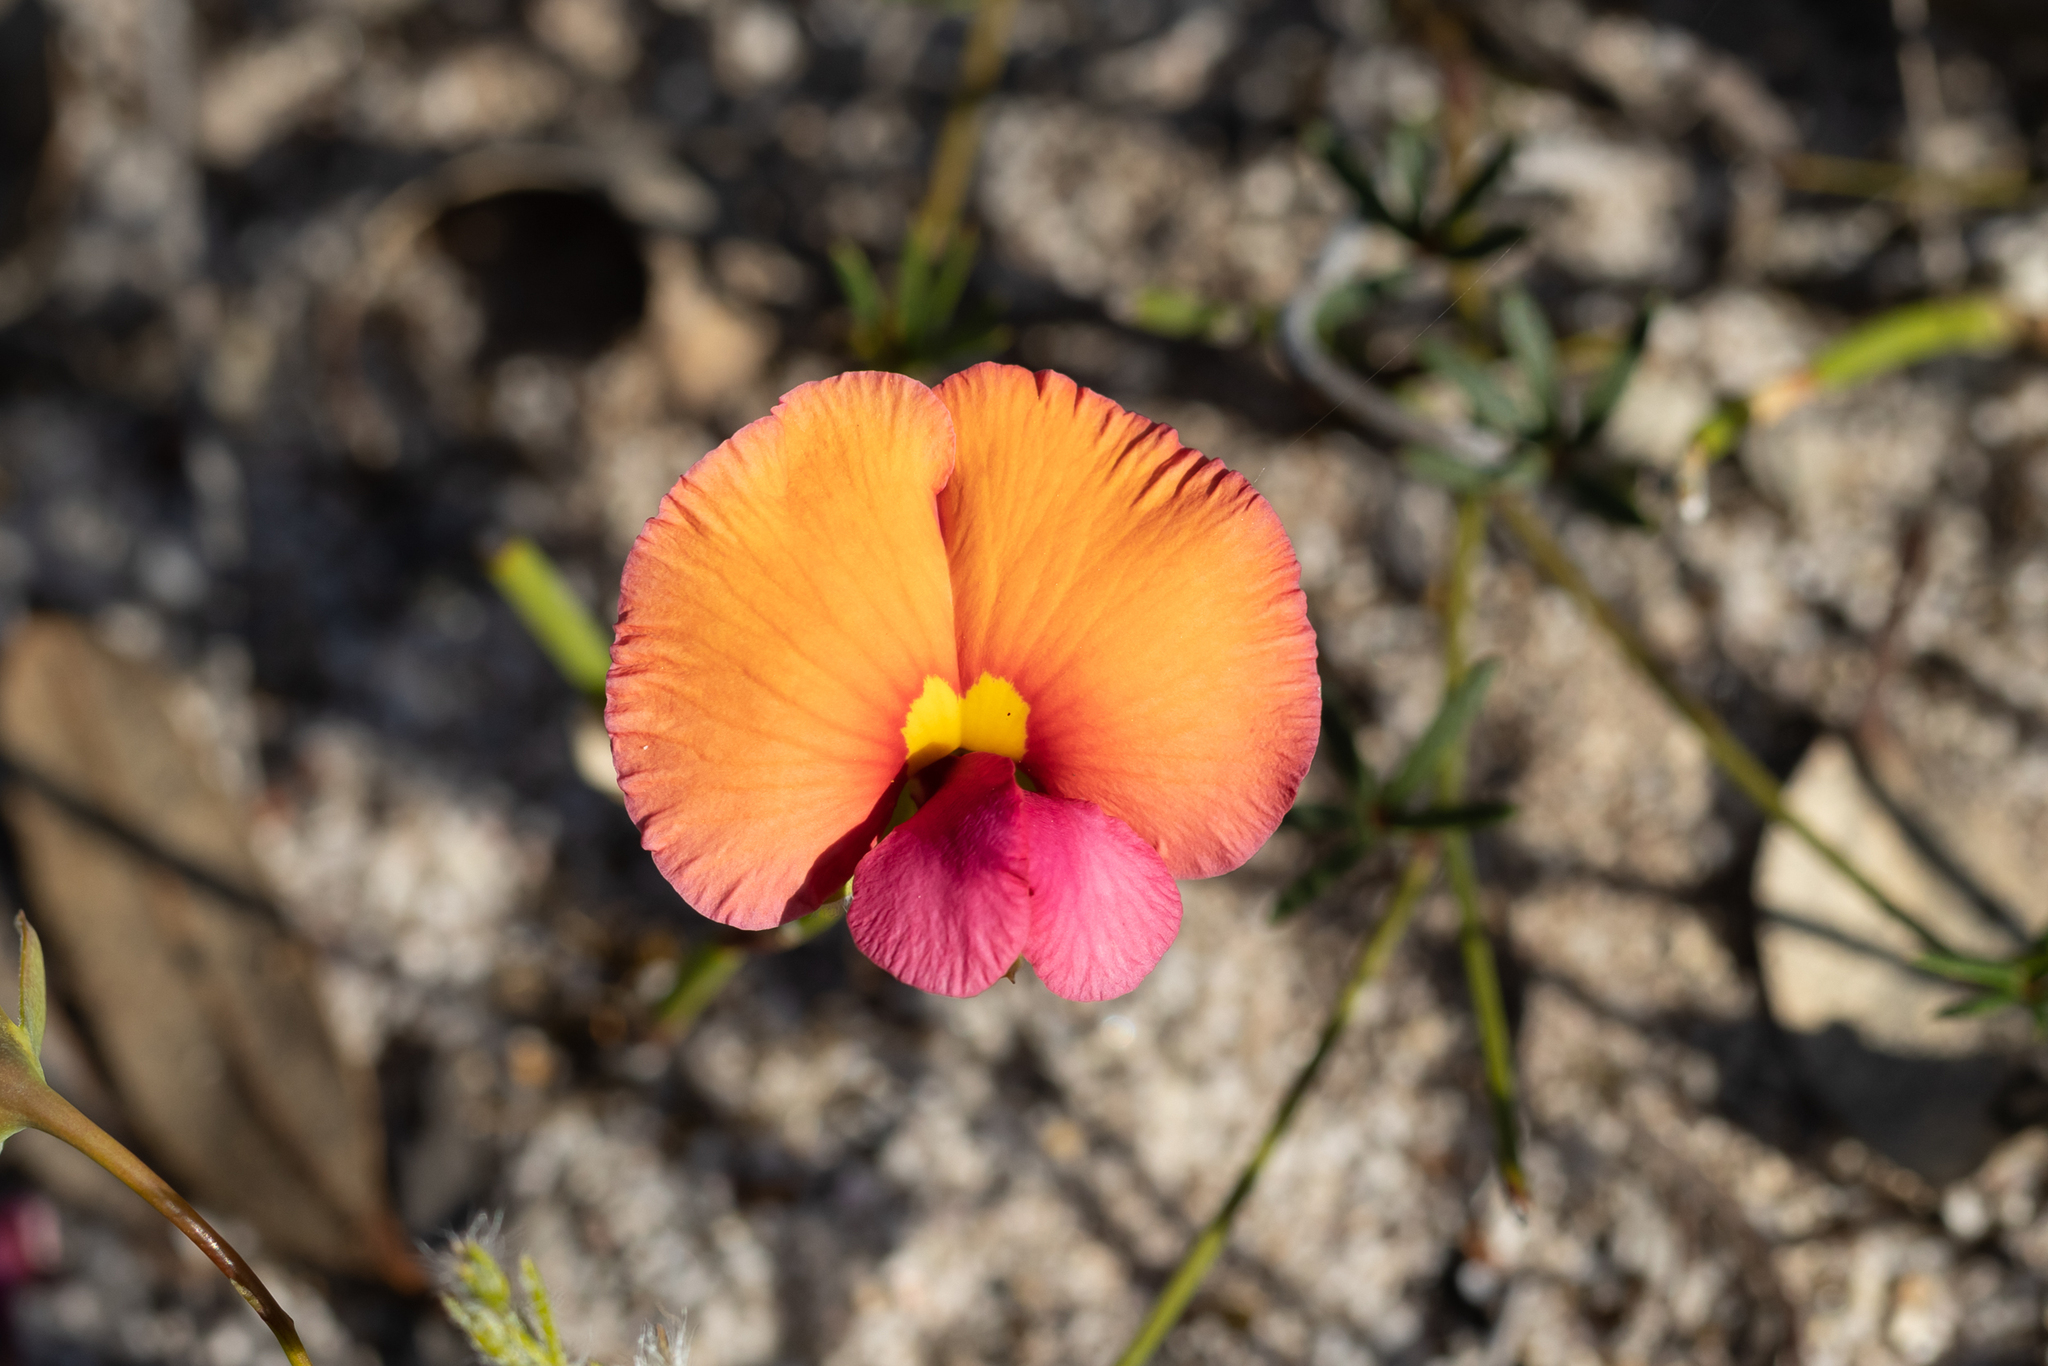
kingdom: Plantae
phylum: Tracheophyta
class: Magnoliopsida
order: Fabales
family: Fabaceae
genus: Gompholobium
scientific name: Gompholobium polymorphum
